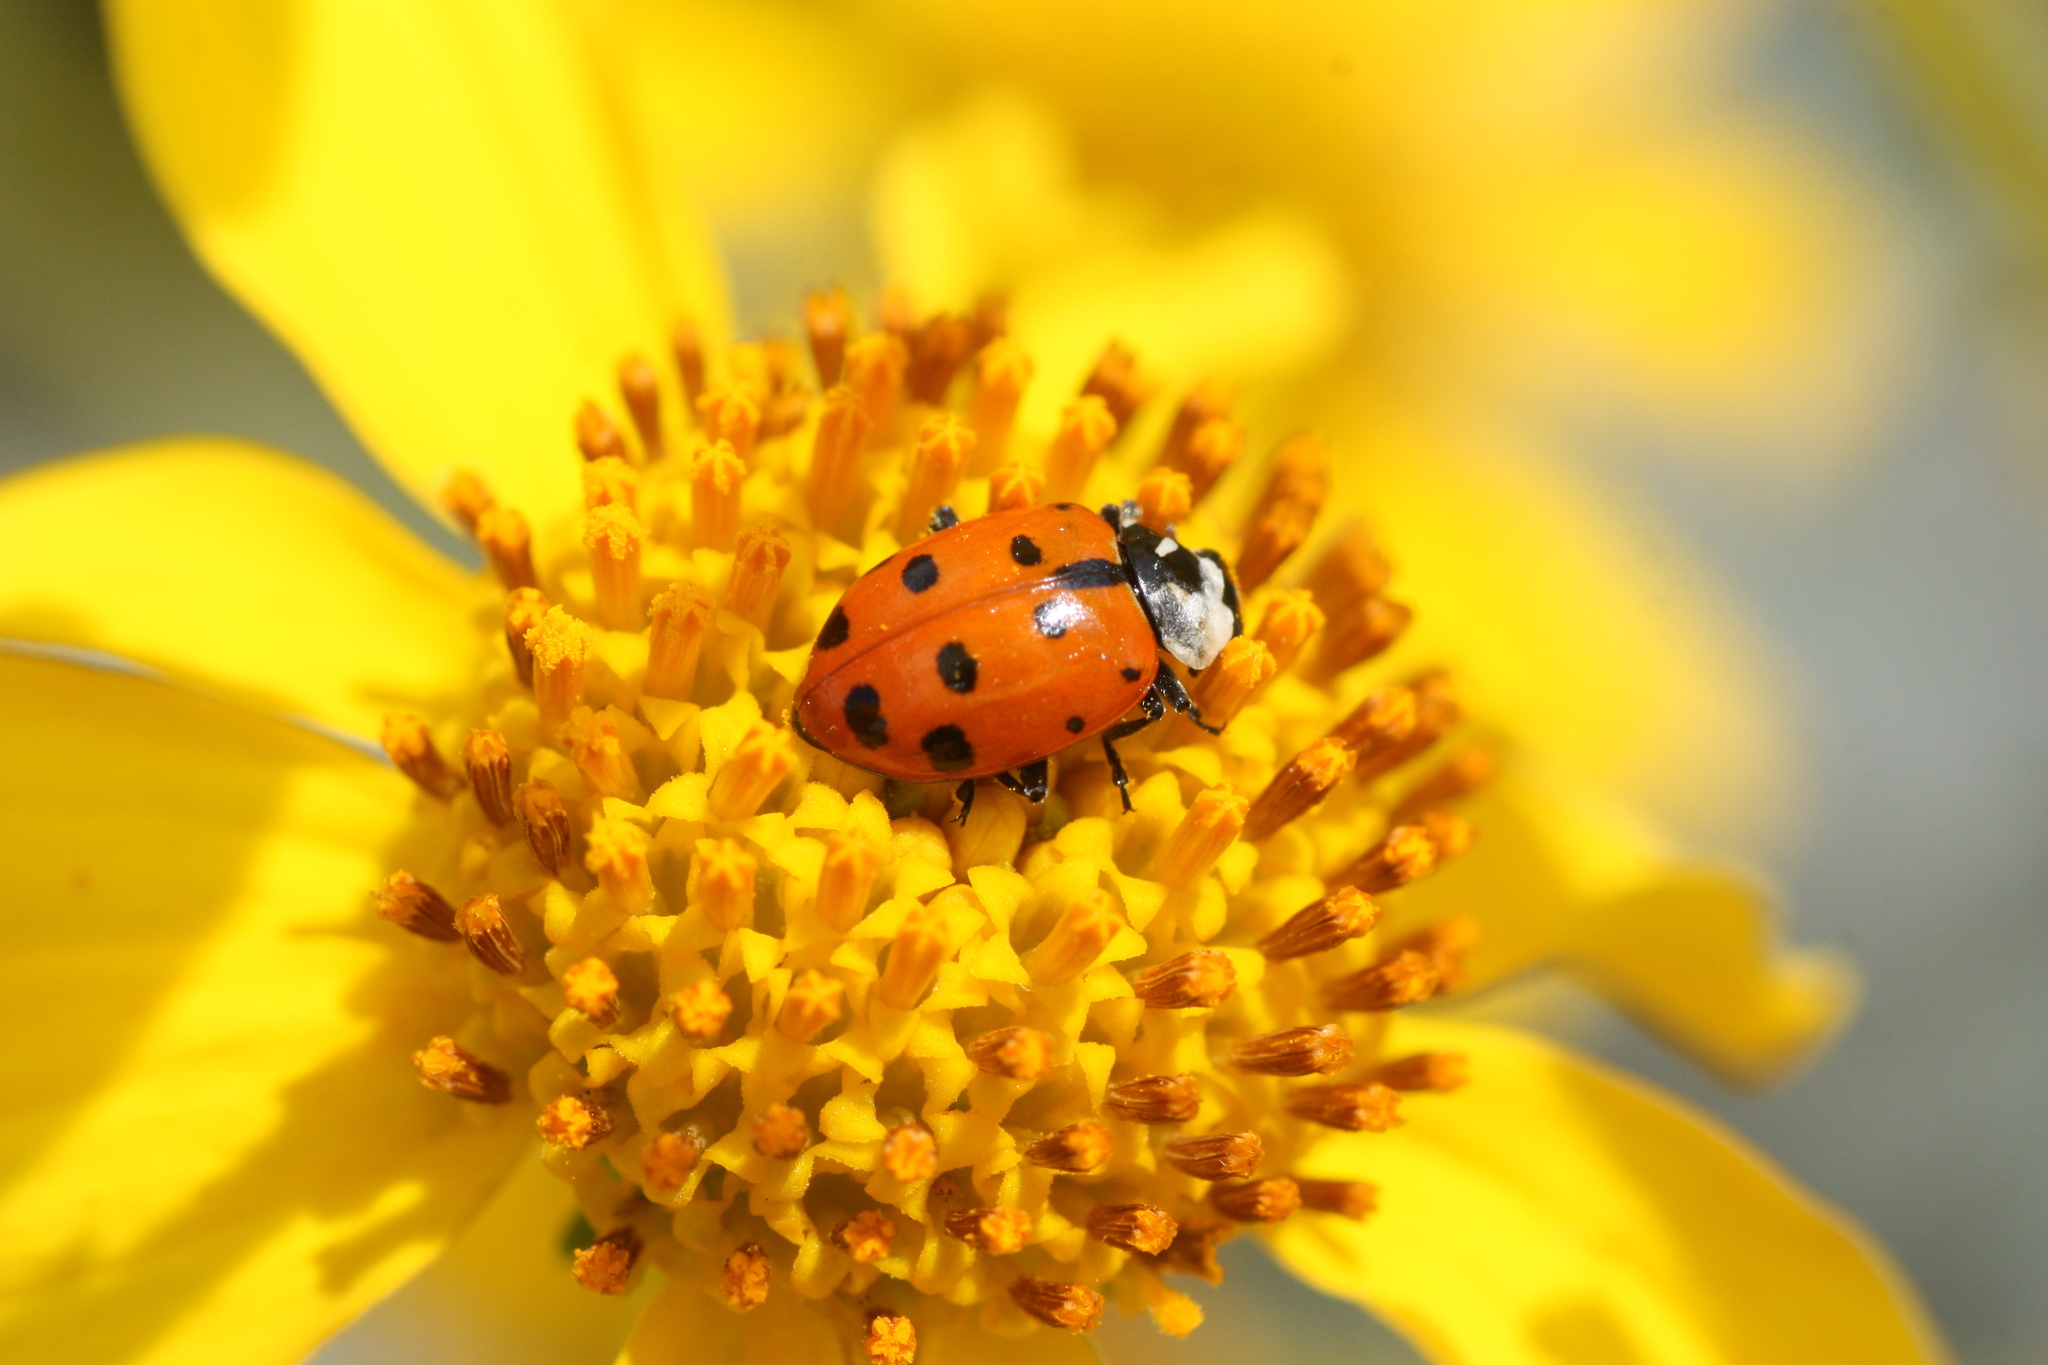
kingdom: Animalia
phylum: Arthropoda
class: Insecta
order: Coleoptera
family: Coccinellidae
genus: Hippodamia
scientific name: Hippodamia convergens
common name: Convergent lady beetle
